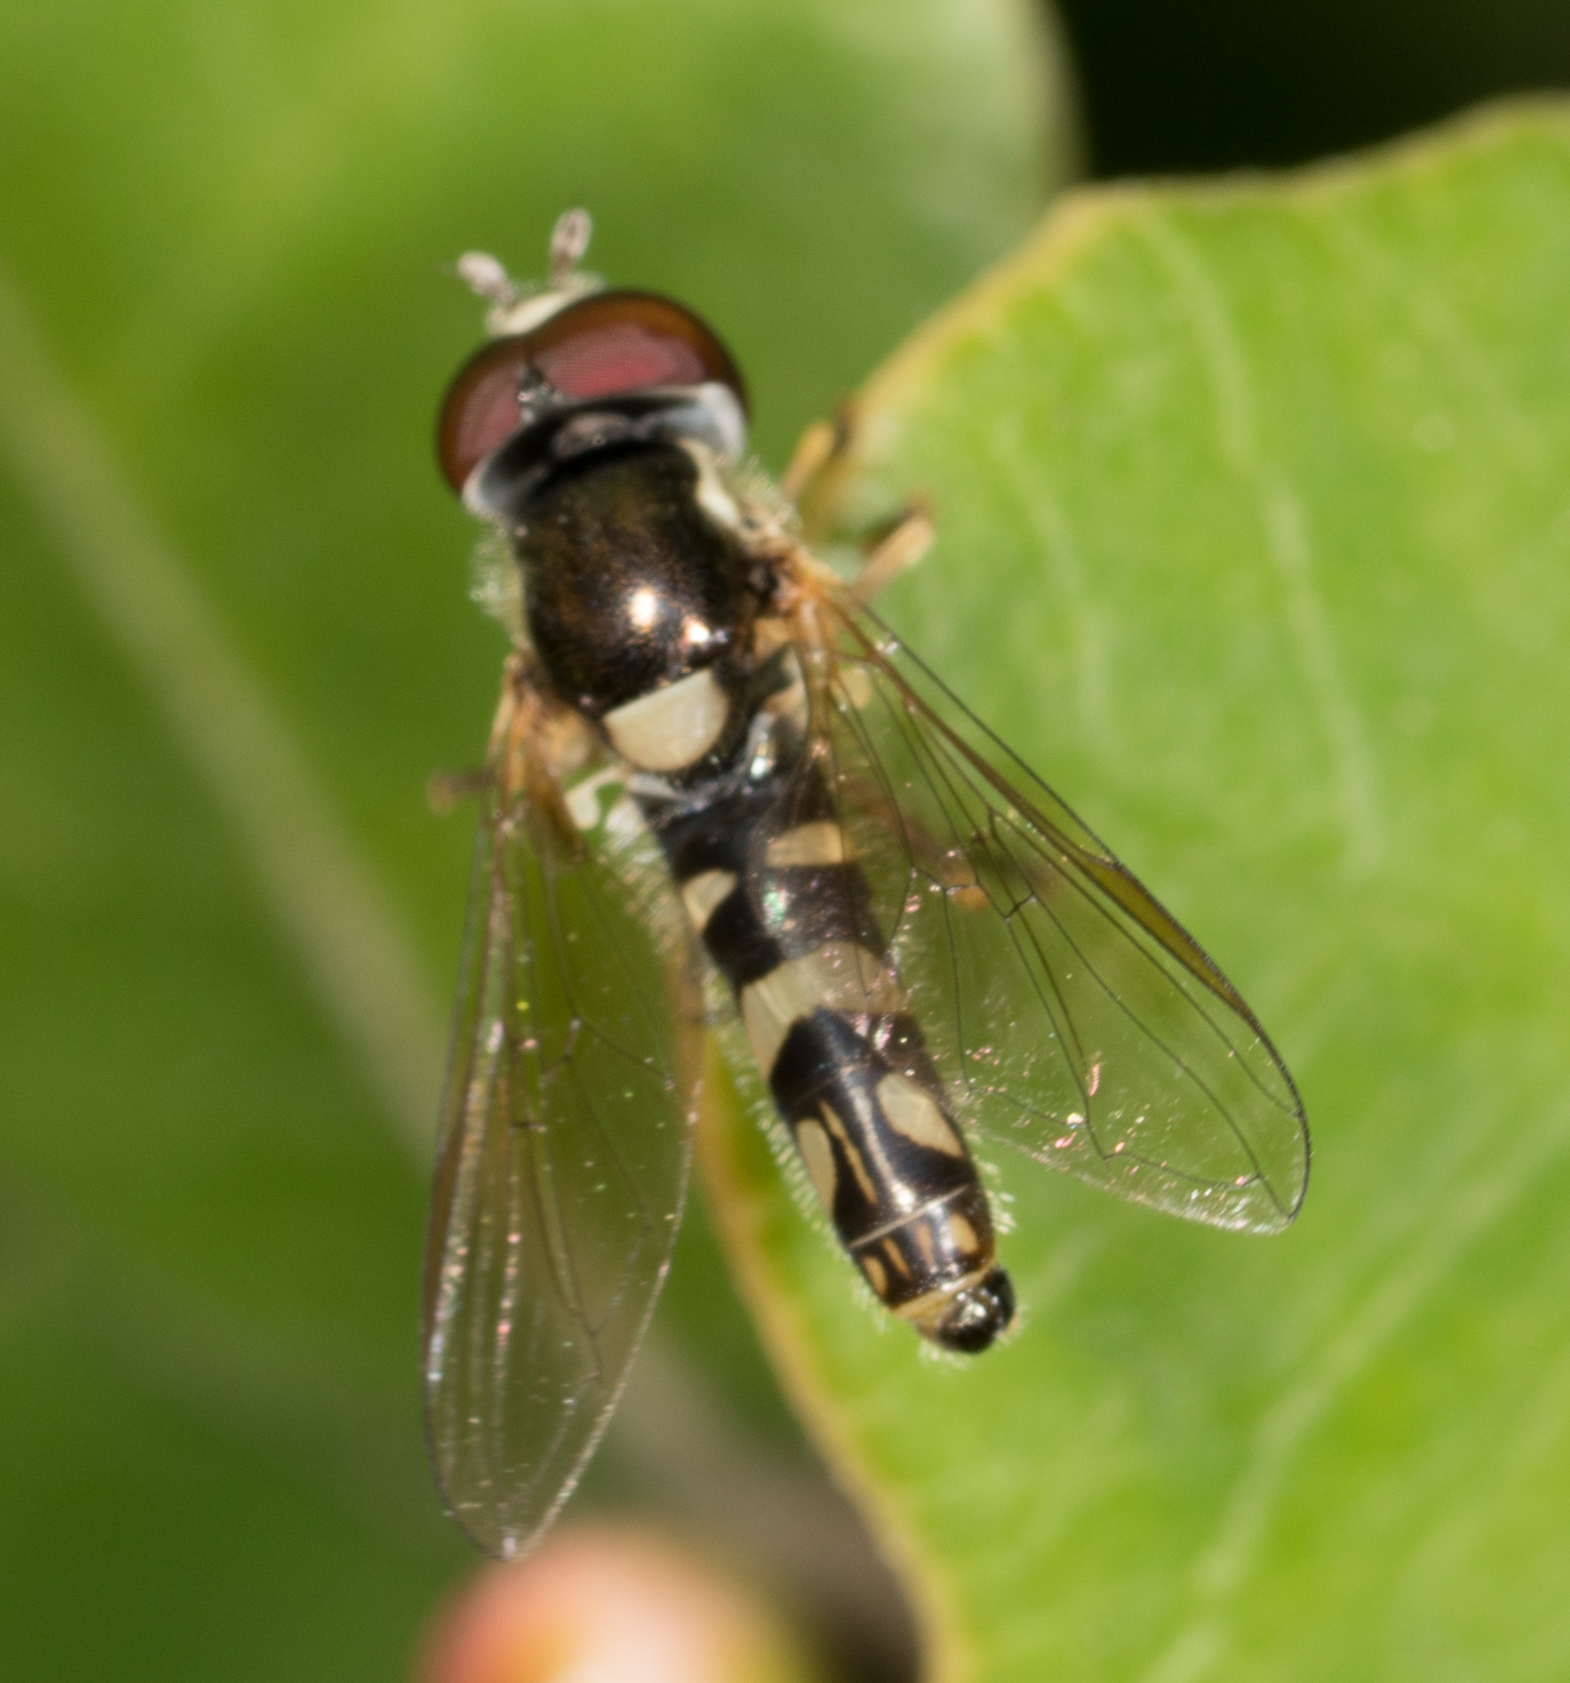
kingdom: Animalia
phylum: Arthropoda
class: Insecta
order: Diptera
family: Syrphidae
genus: Allograpta
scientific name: Allograpta exotica
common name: Syrphid fly
